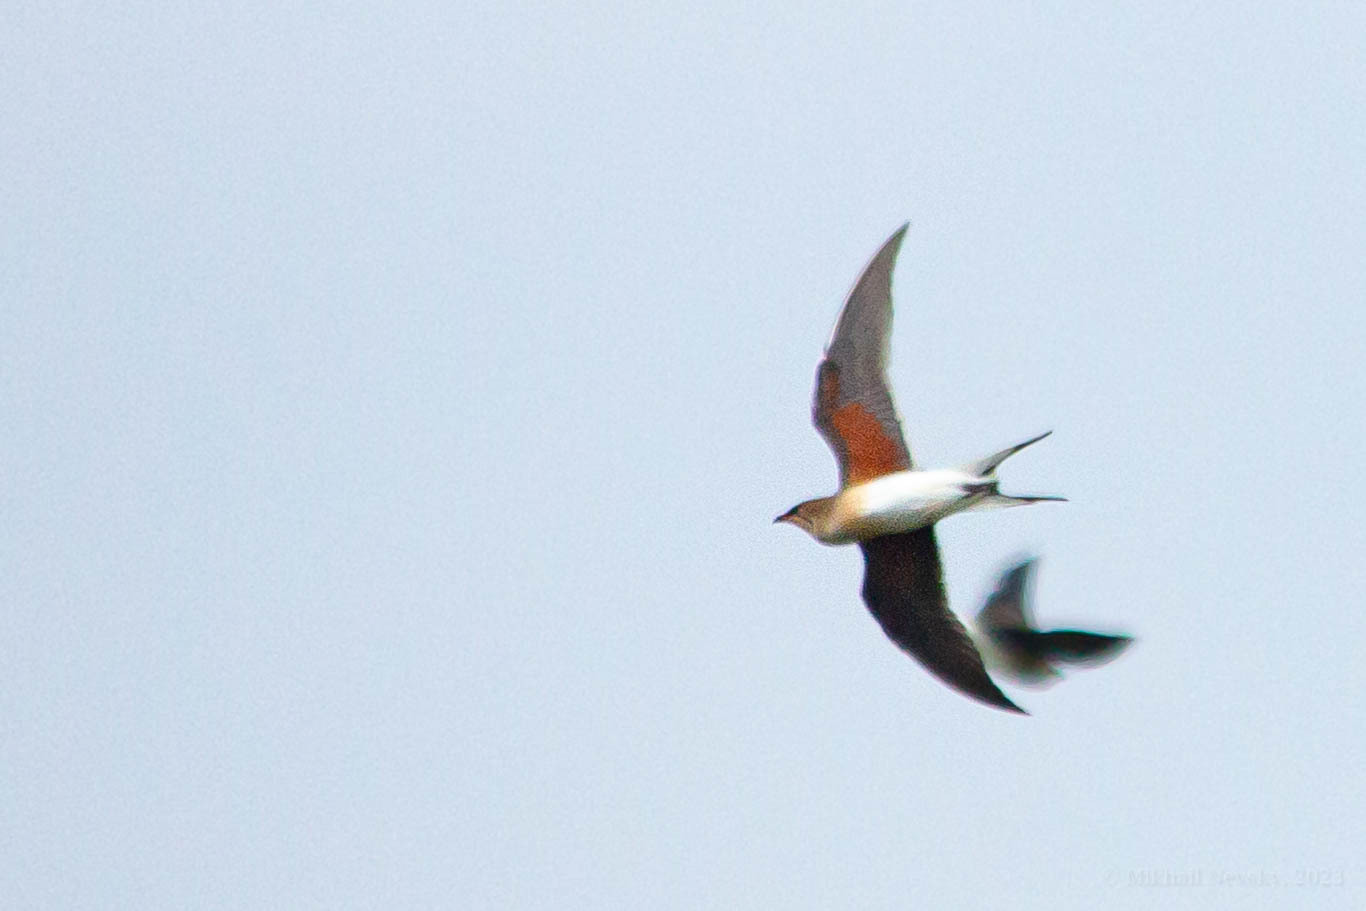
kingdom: Animalia
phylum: Chordata
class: Aves
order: Charadriiformes
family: Glareolidae
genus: Glareola
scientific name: Glareola pratincola
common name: Collared pratincole
